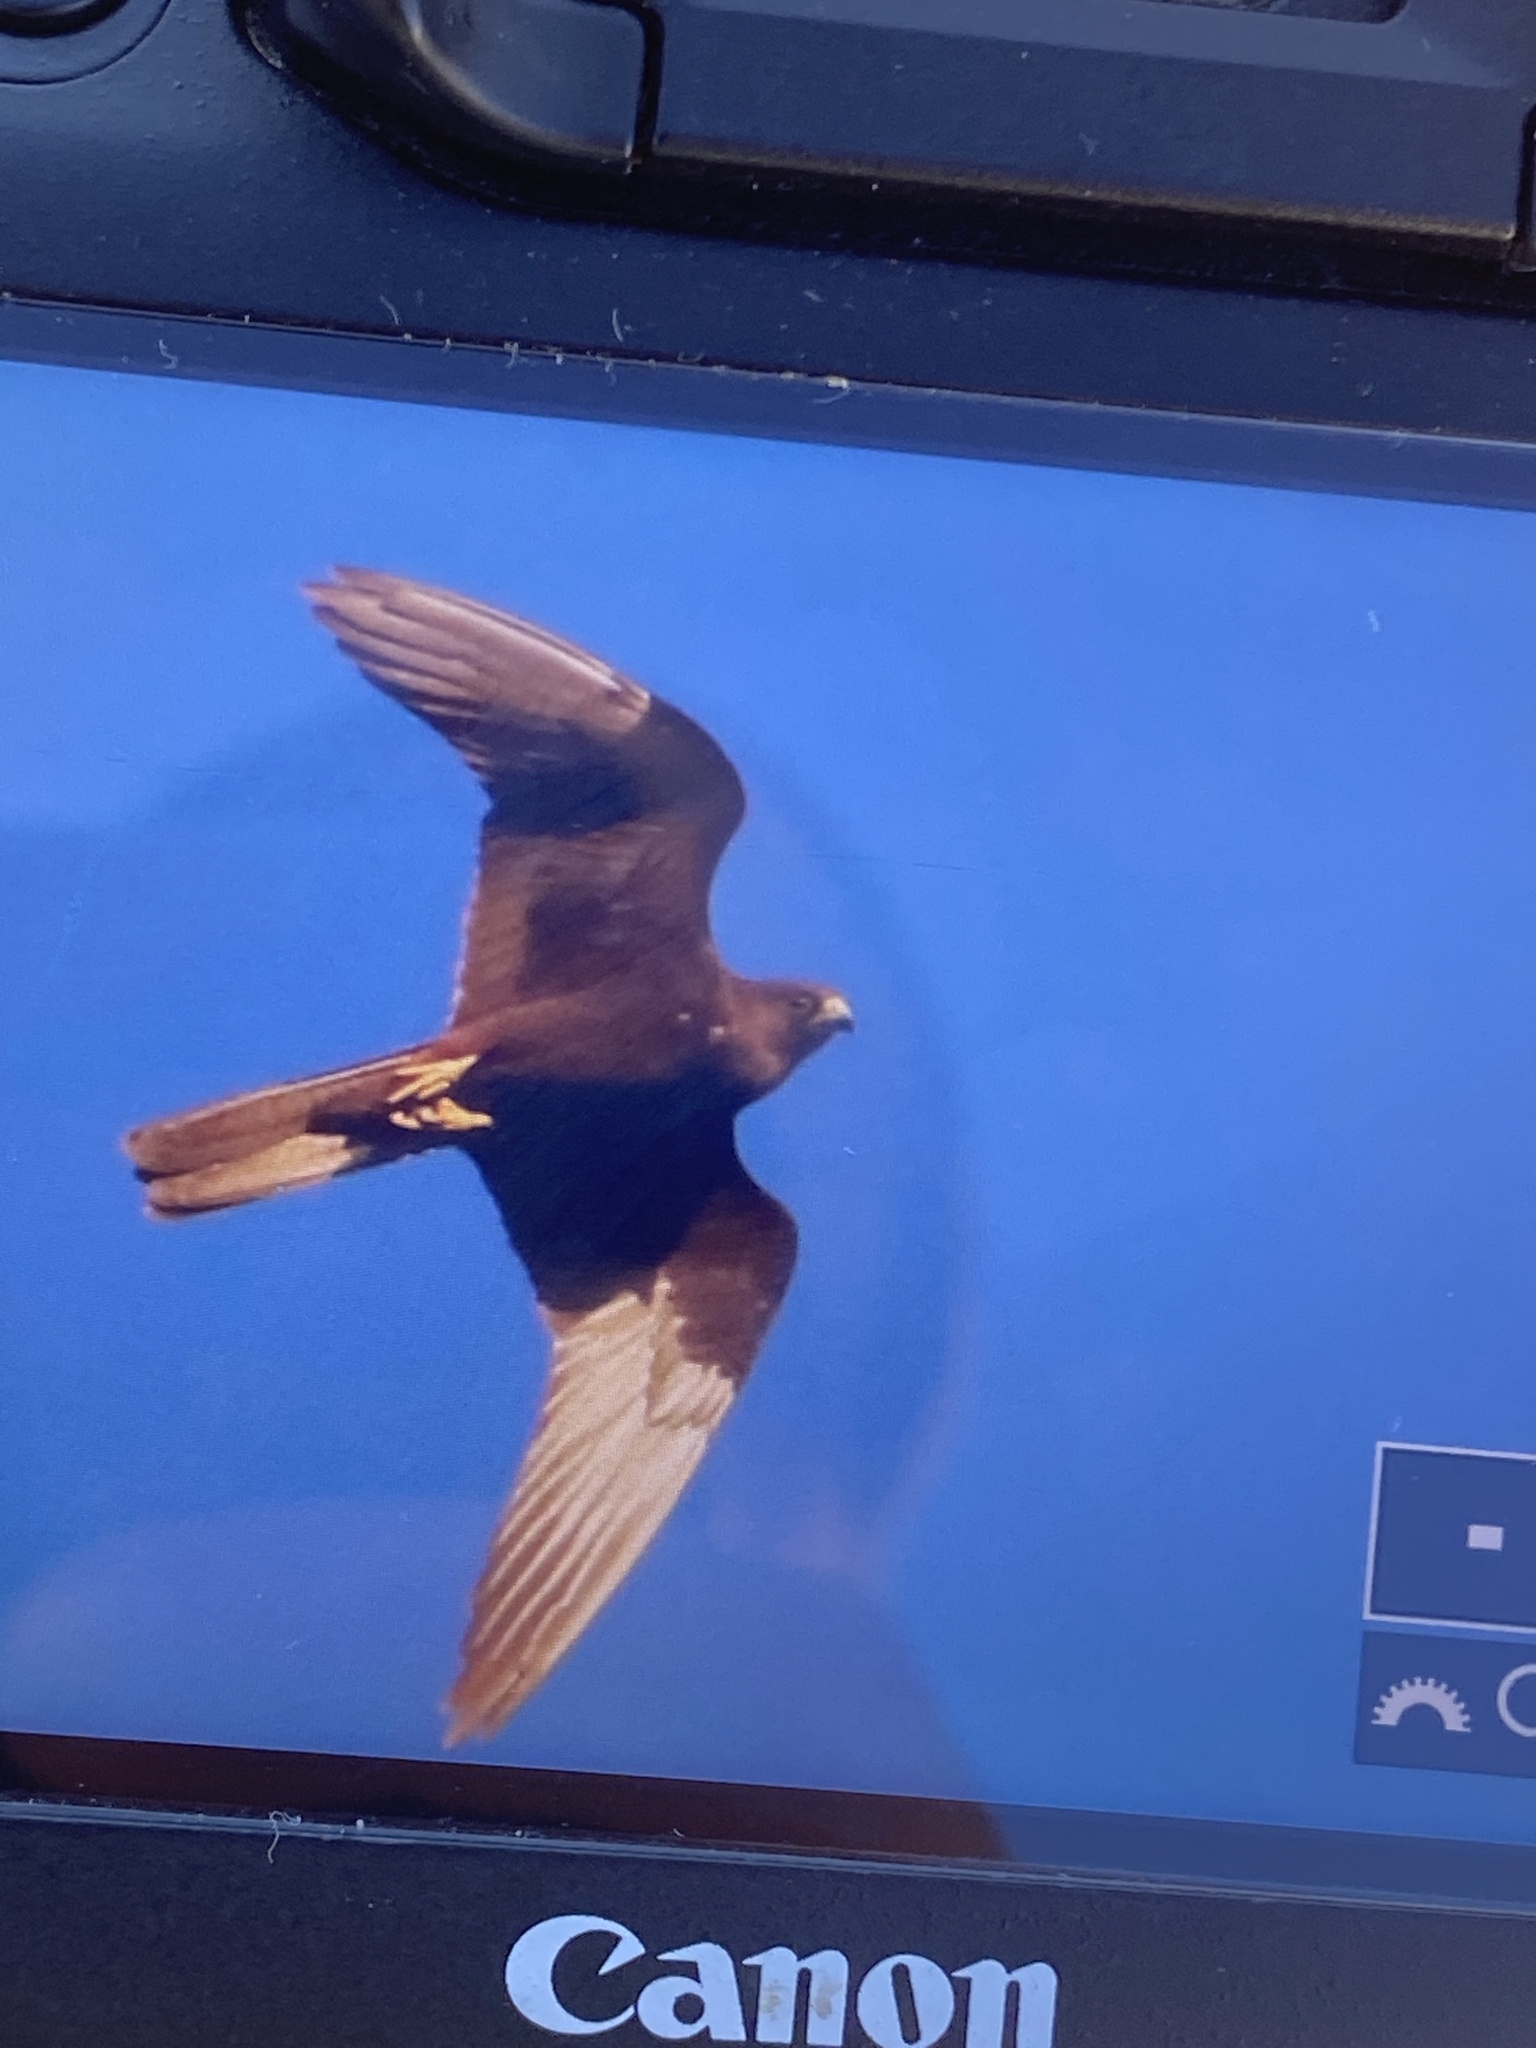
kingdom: Animalia
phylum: Chordata
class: Aves
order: Falconiformes
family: Falconidae
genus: Falco
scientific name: Falco eleonorae
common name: Eleonora's falcon
